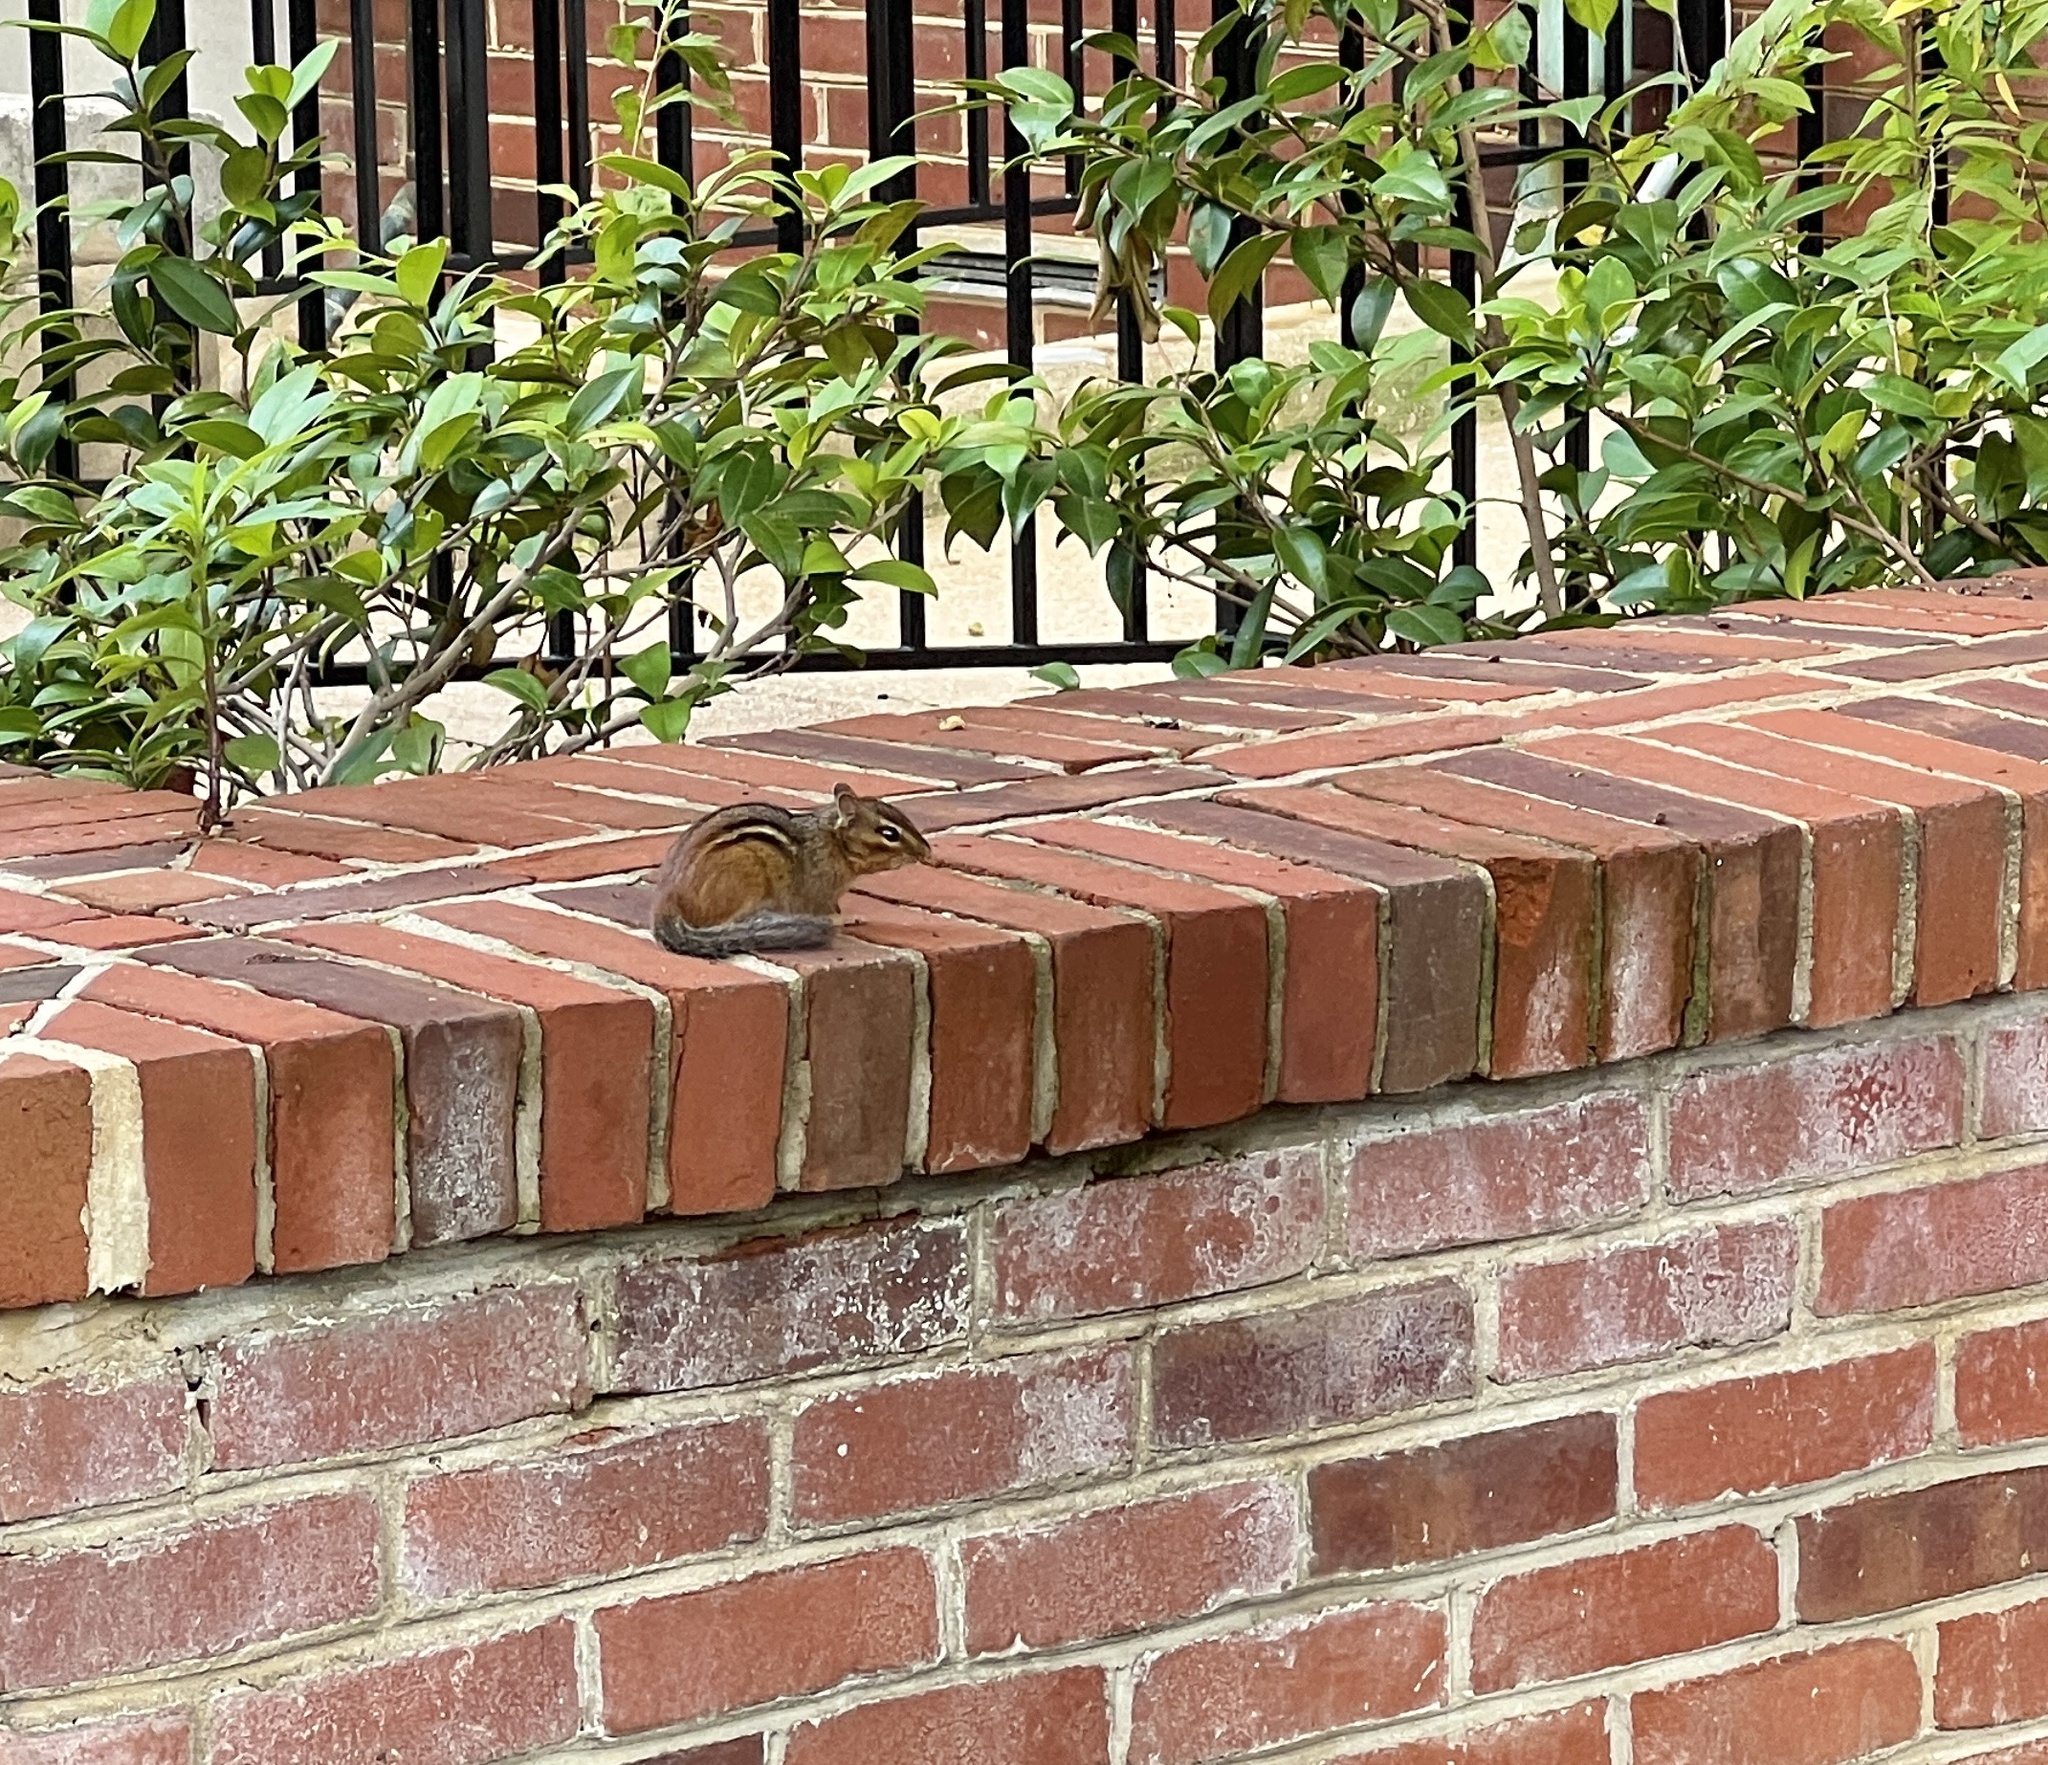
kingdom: Animalia
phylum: Chordata
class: Mammalia
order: Rodentia
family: Sciuridae
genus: Tamias
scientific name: Tamias striatus
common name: Eastern chipmunk
